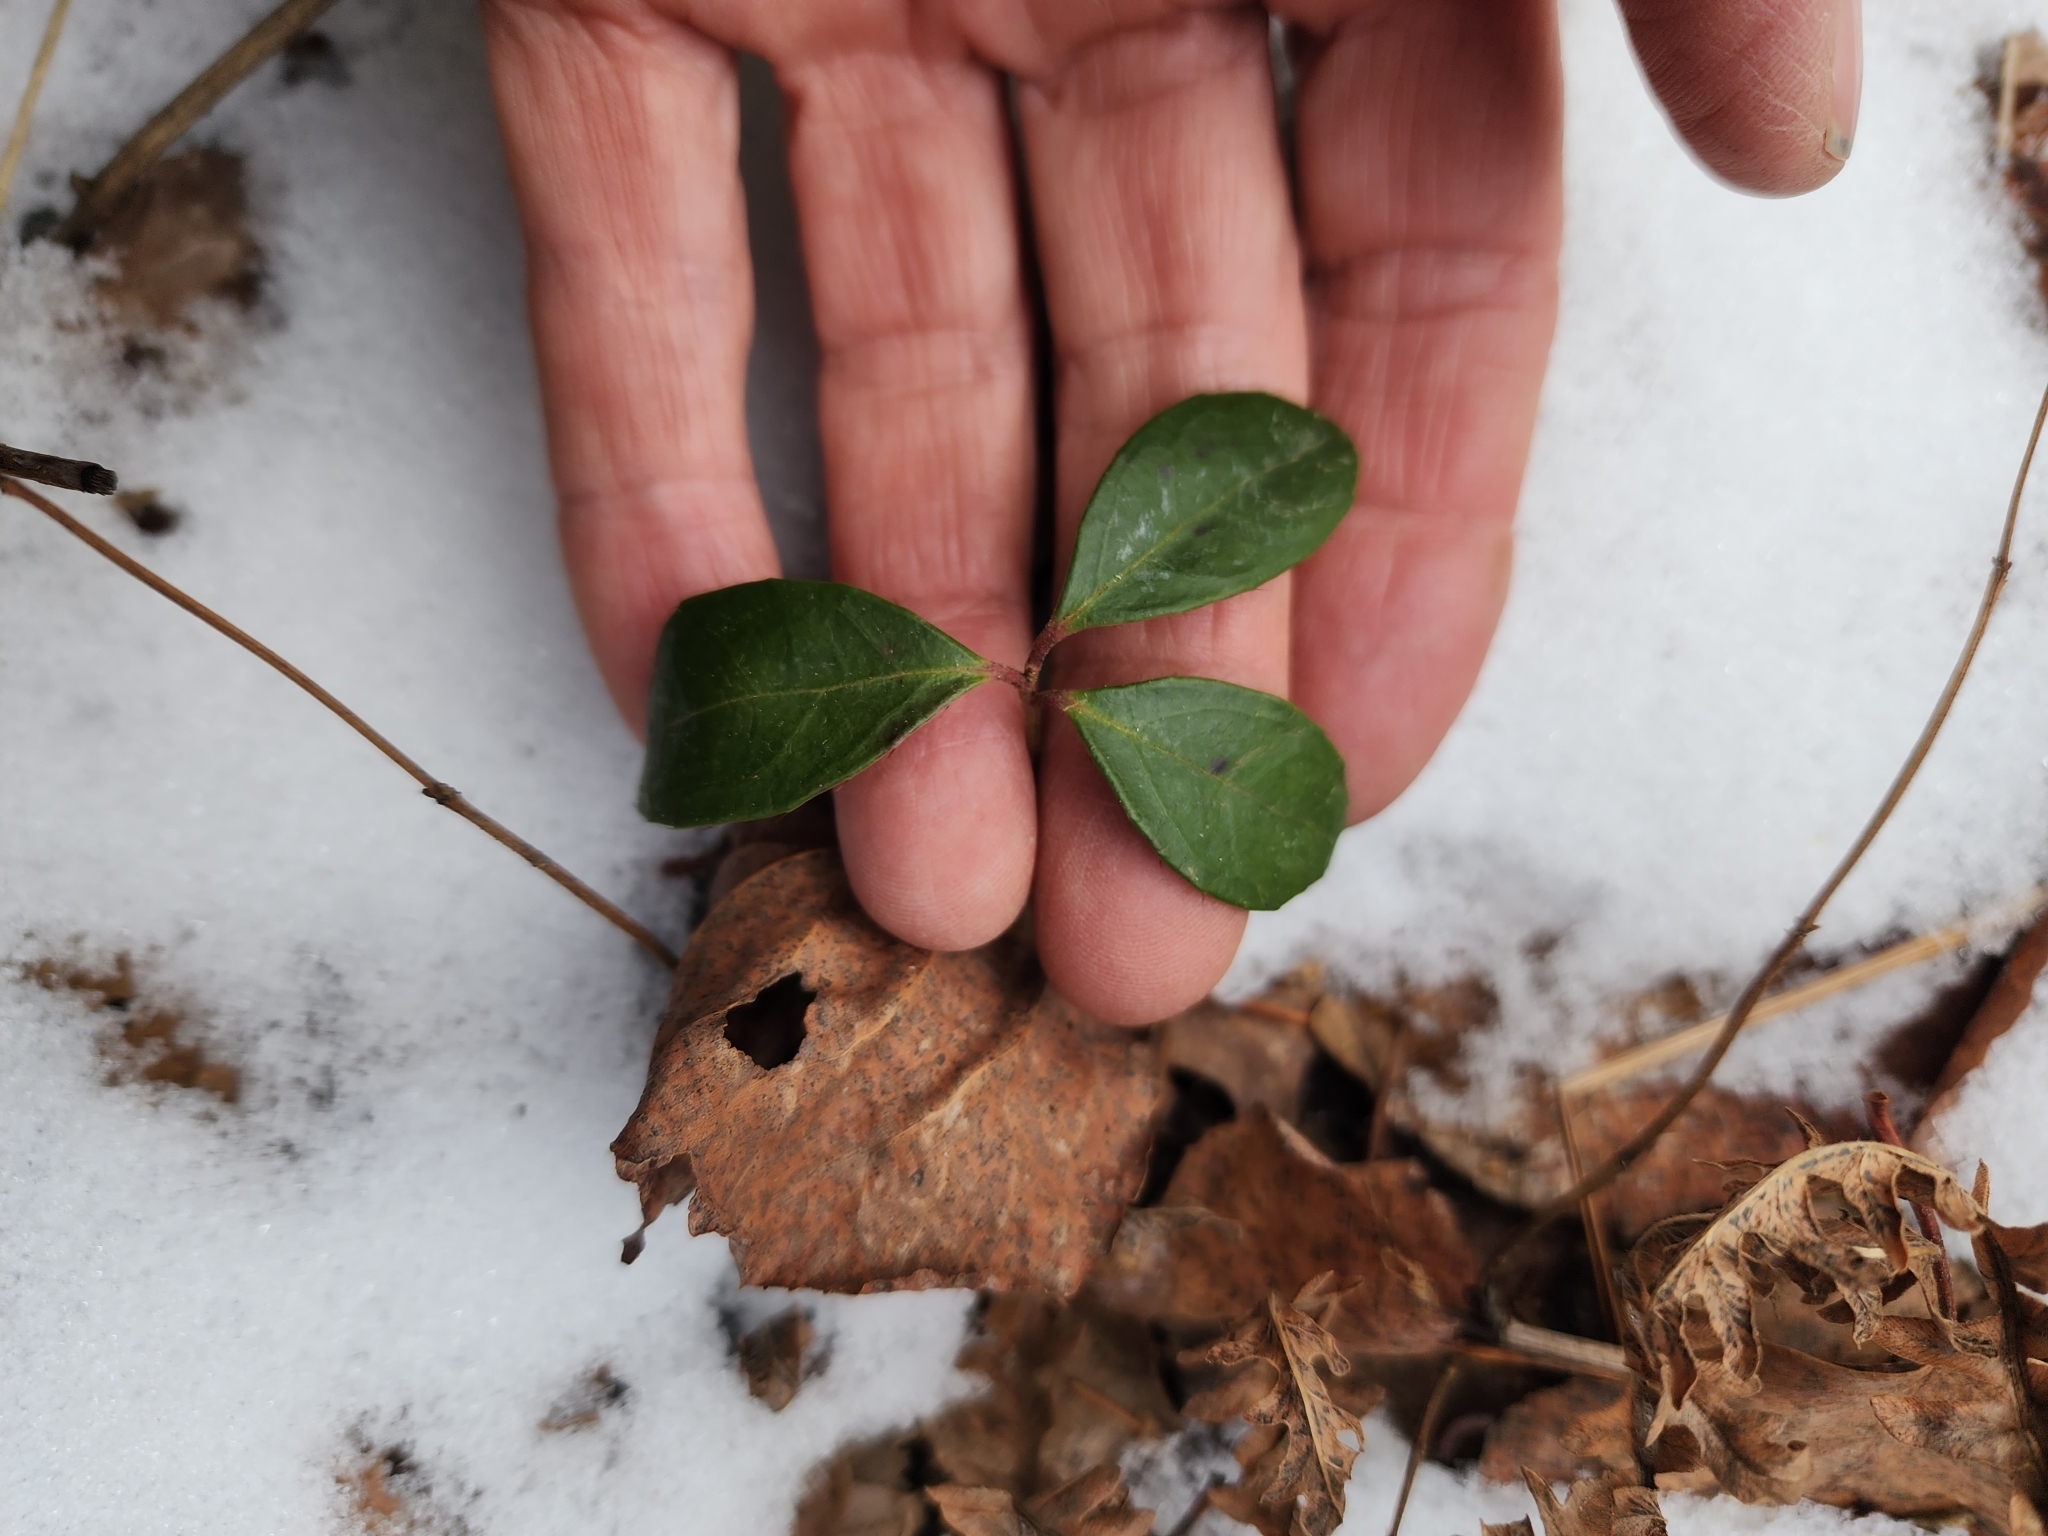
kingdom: Plantae
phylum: Tracheophyta
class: Magnoliopsida
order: Ericales
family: Ericaceae
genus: Gaultheria
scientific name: Gaultheria procumbens
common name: Checkerberry
